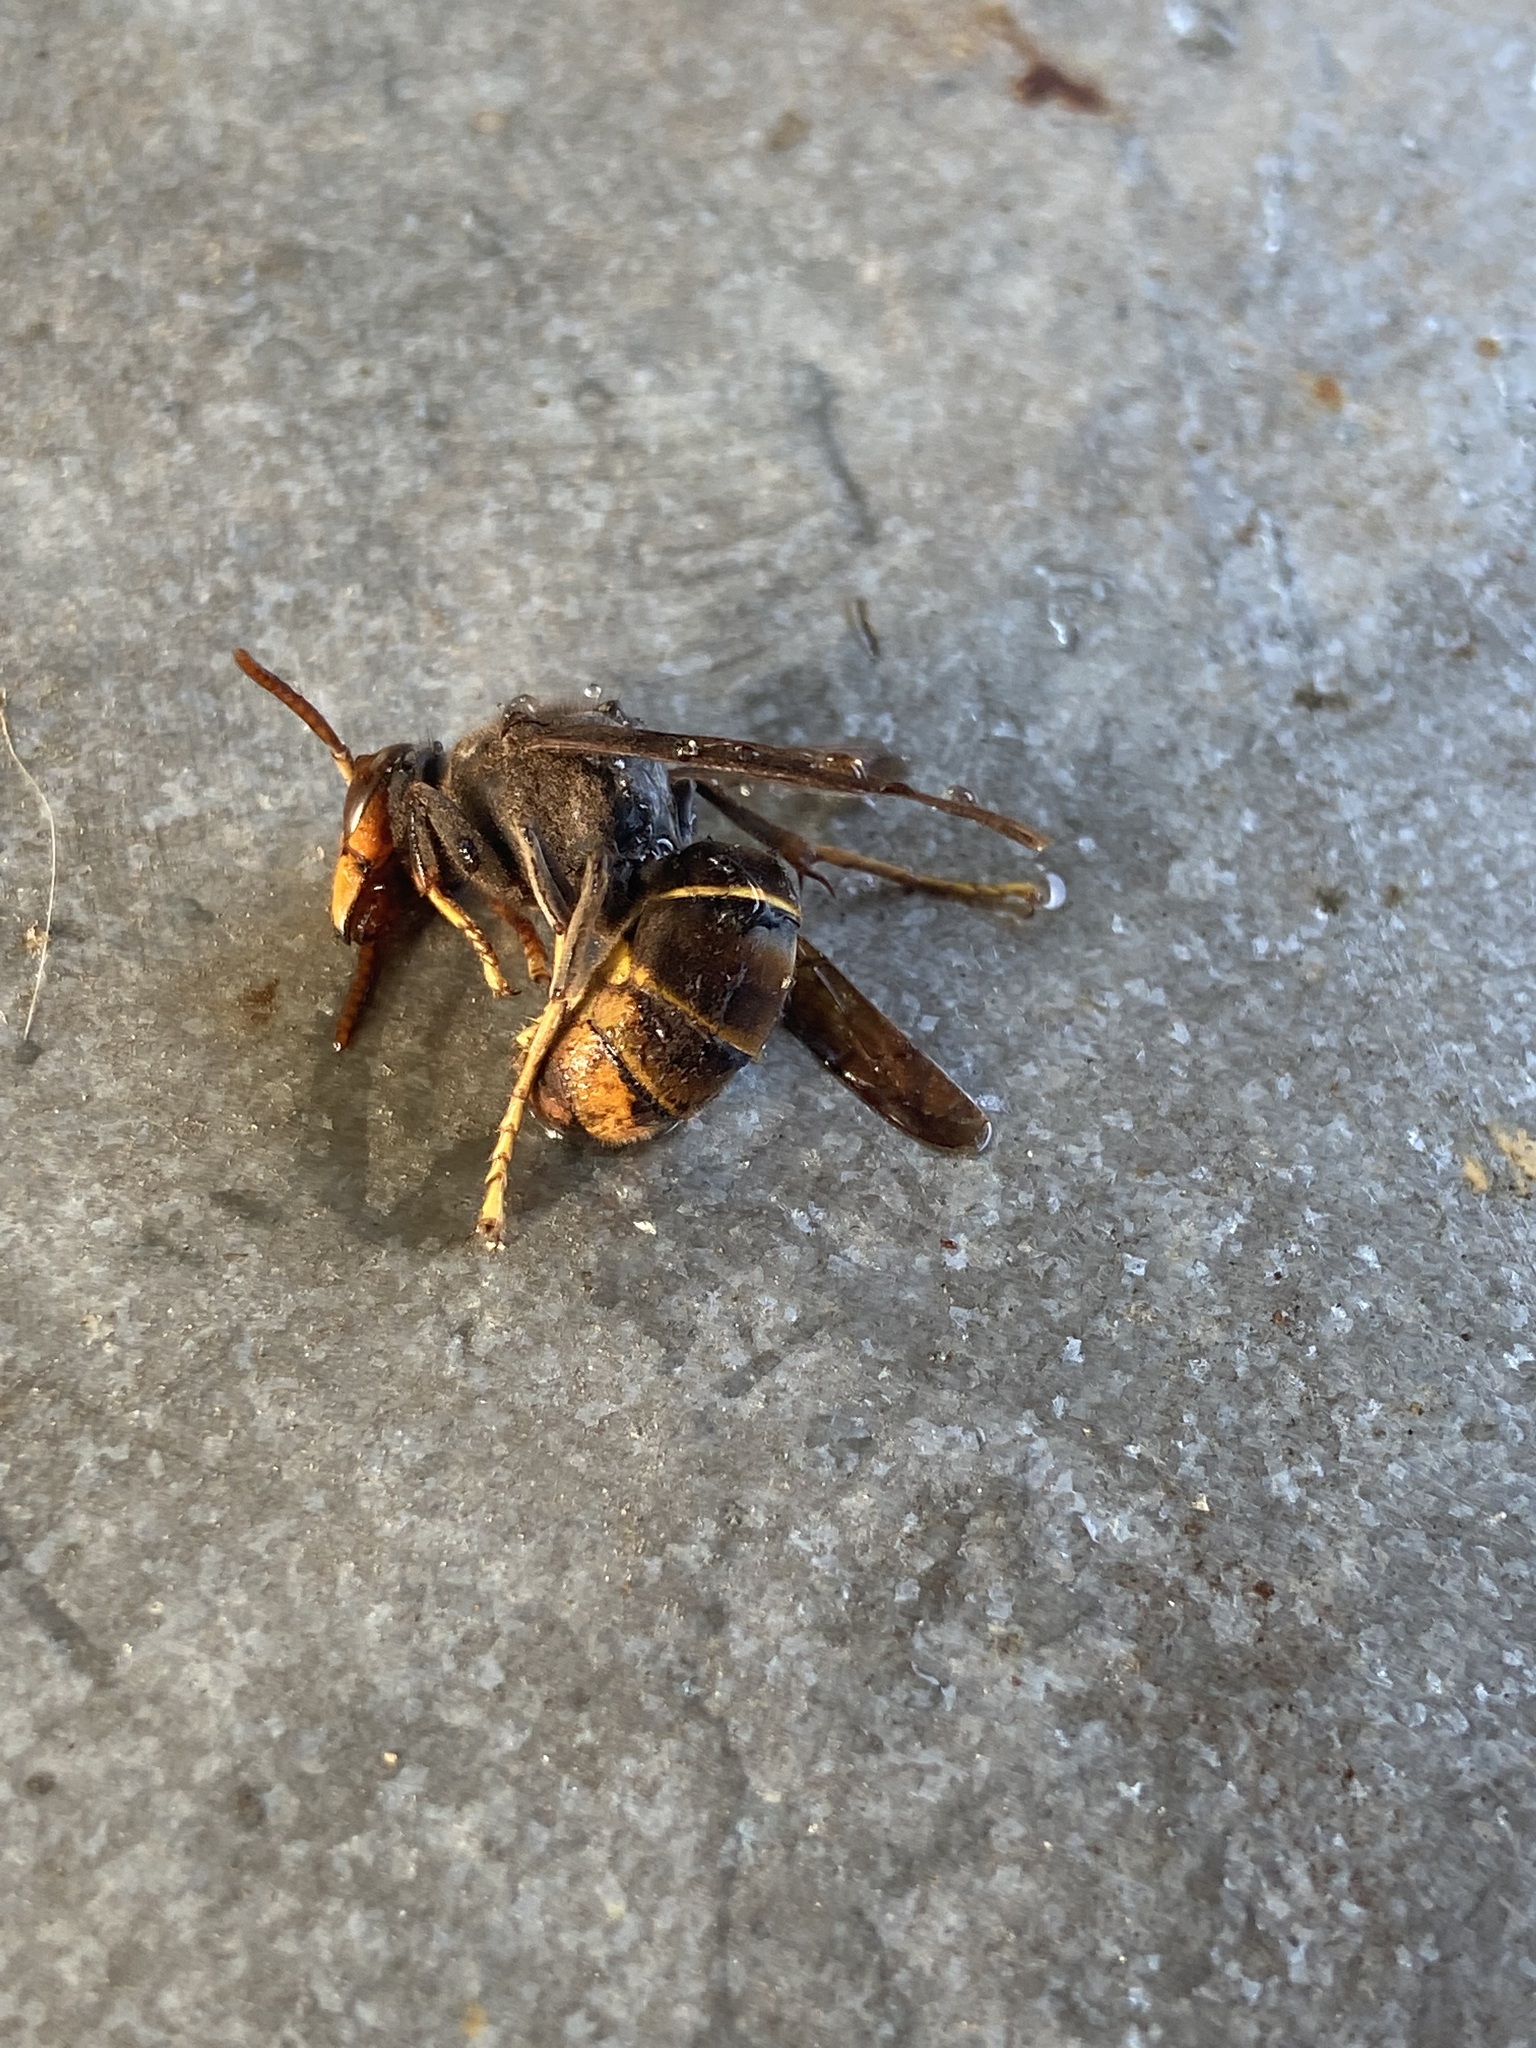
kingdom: Animalia
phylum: Arthropoda
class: Insecta
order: Hymenoptera
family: Vespidae
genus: Vespa
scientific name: Vespa velutina
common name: Asian hornet
